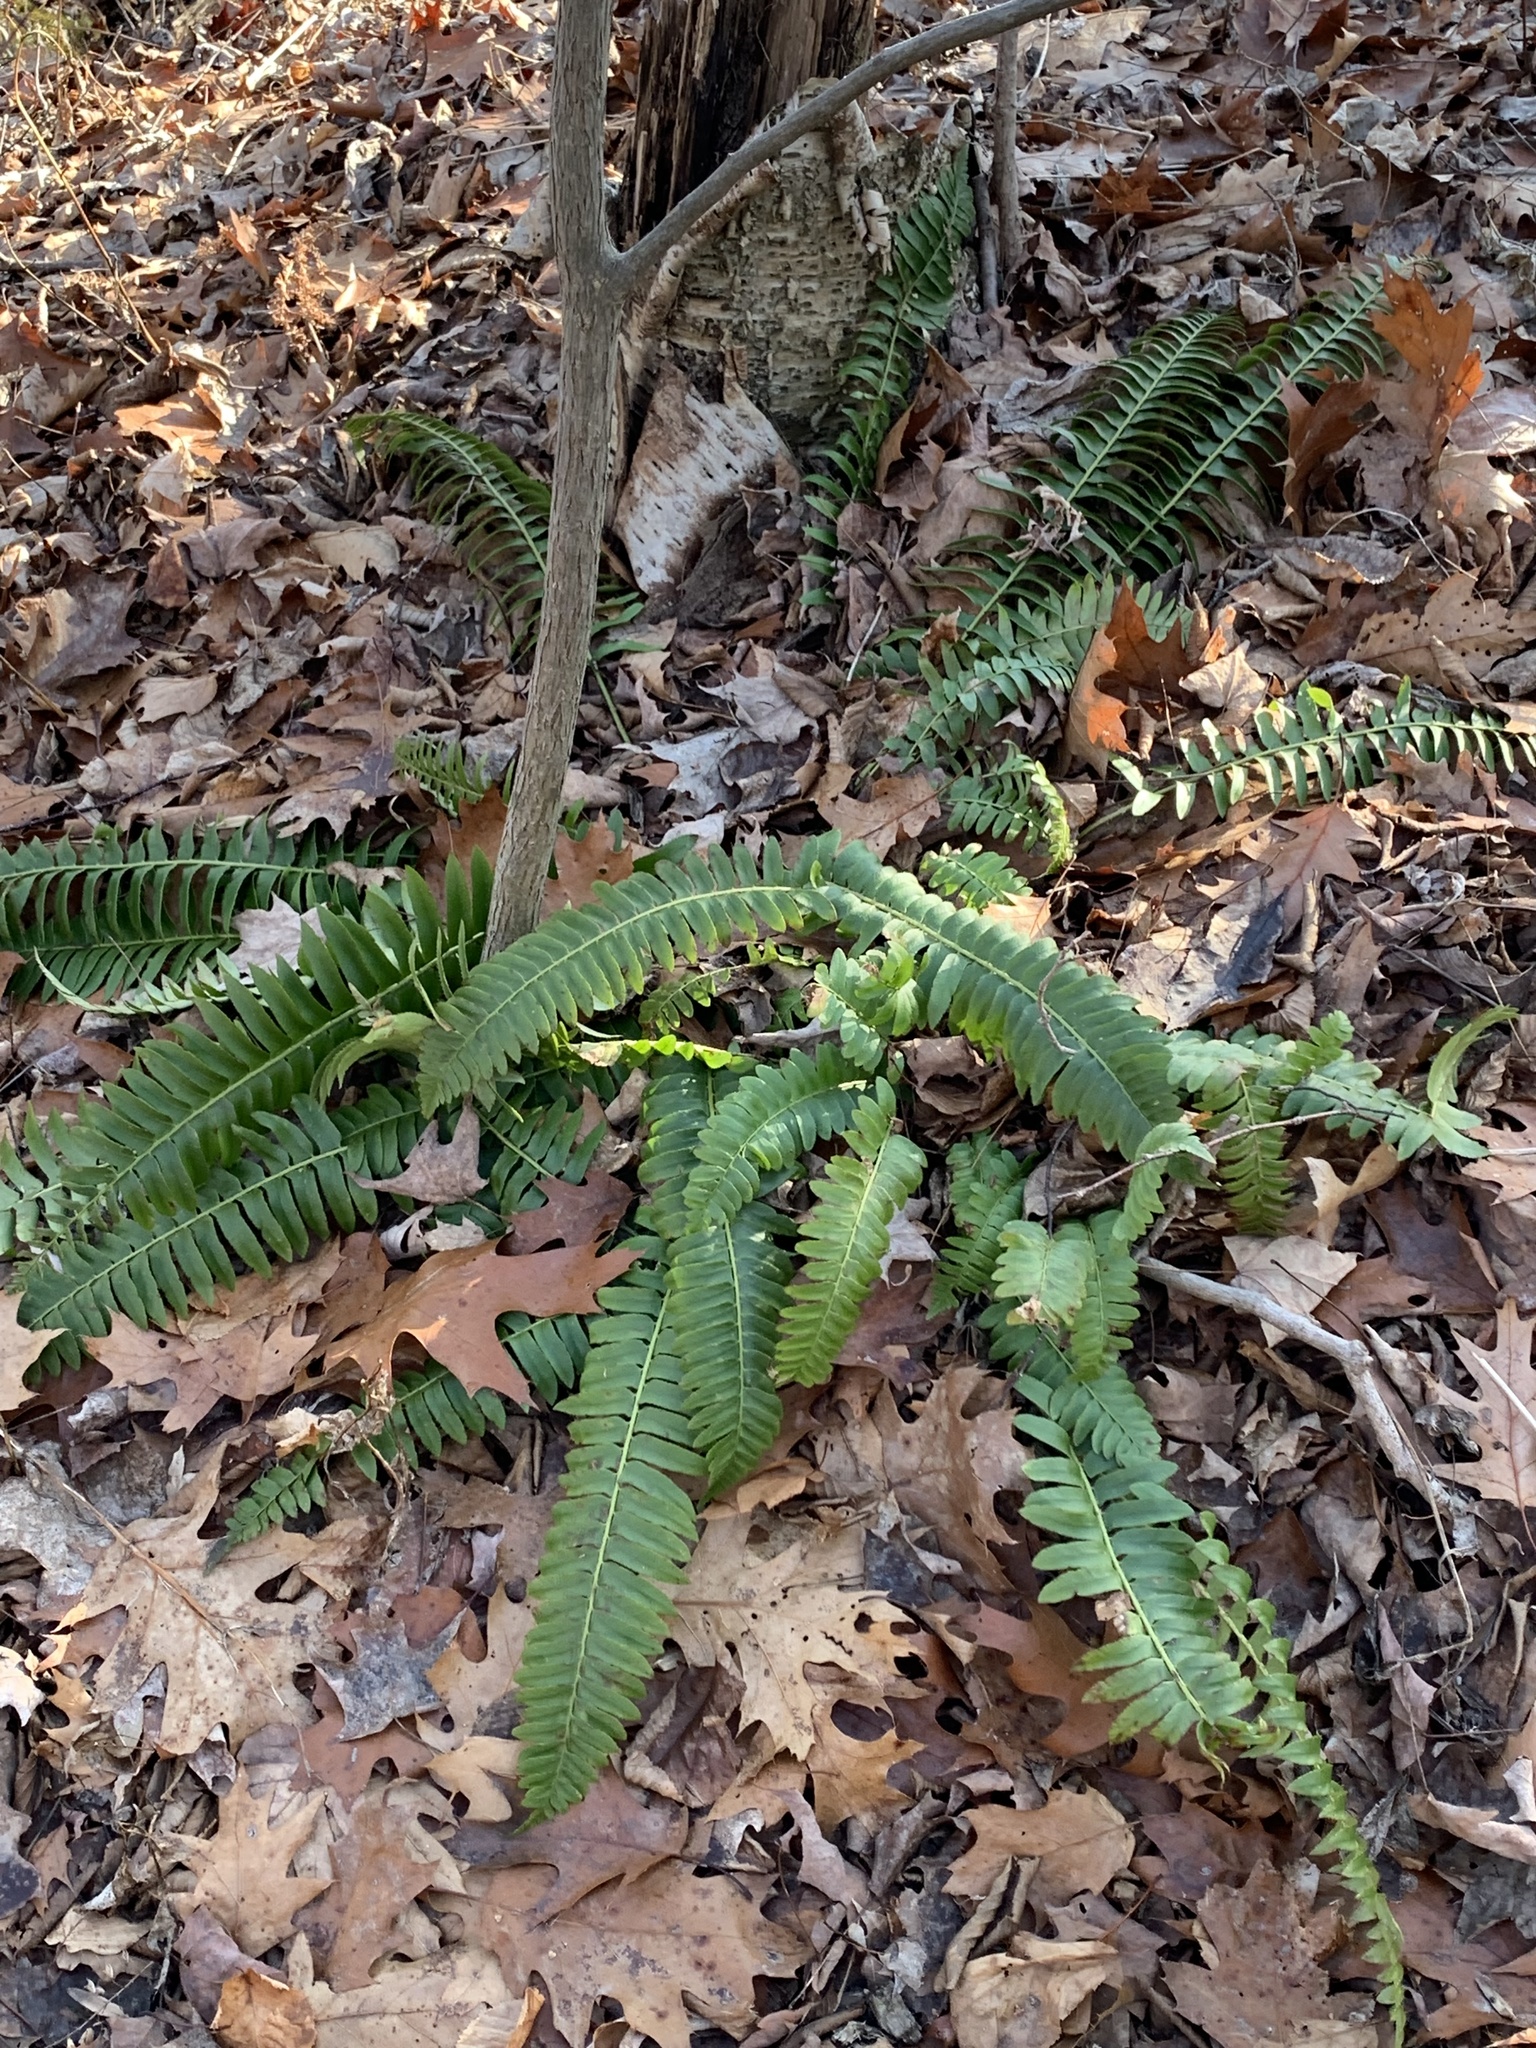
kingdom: Plantae
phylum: Tracheophyta
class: Polypodiopsida
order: Polypodiales
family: Dryopteridaceae
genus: Polystichum
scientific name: Polystichum acrostichoides
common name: Christmas fern
